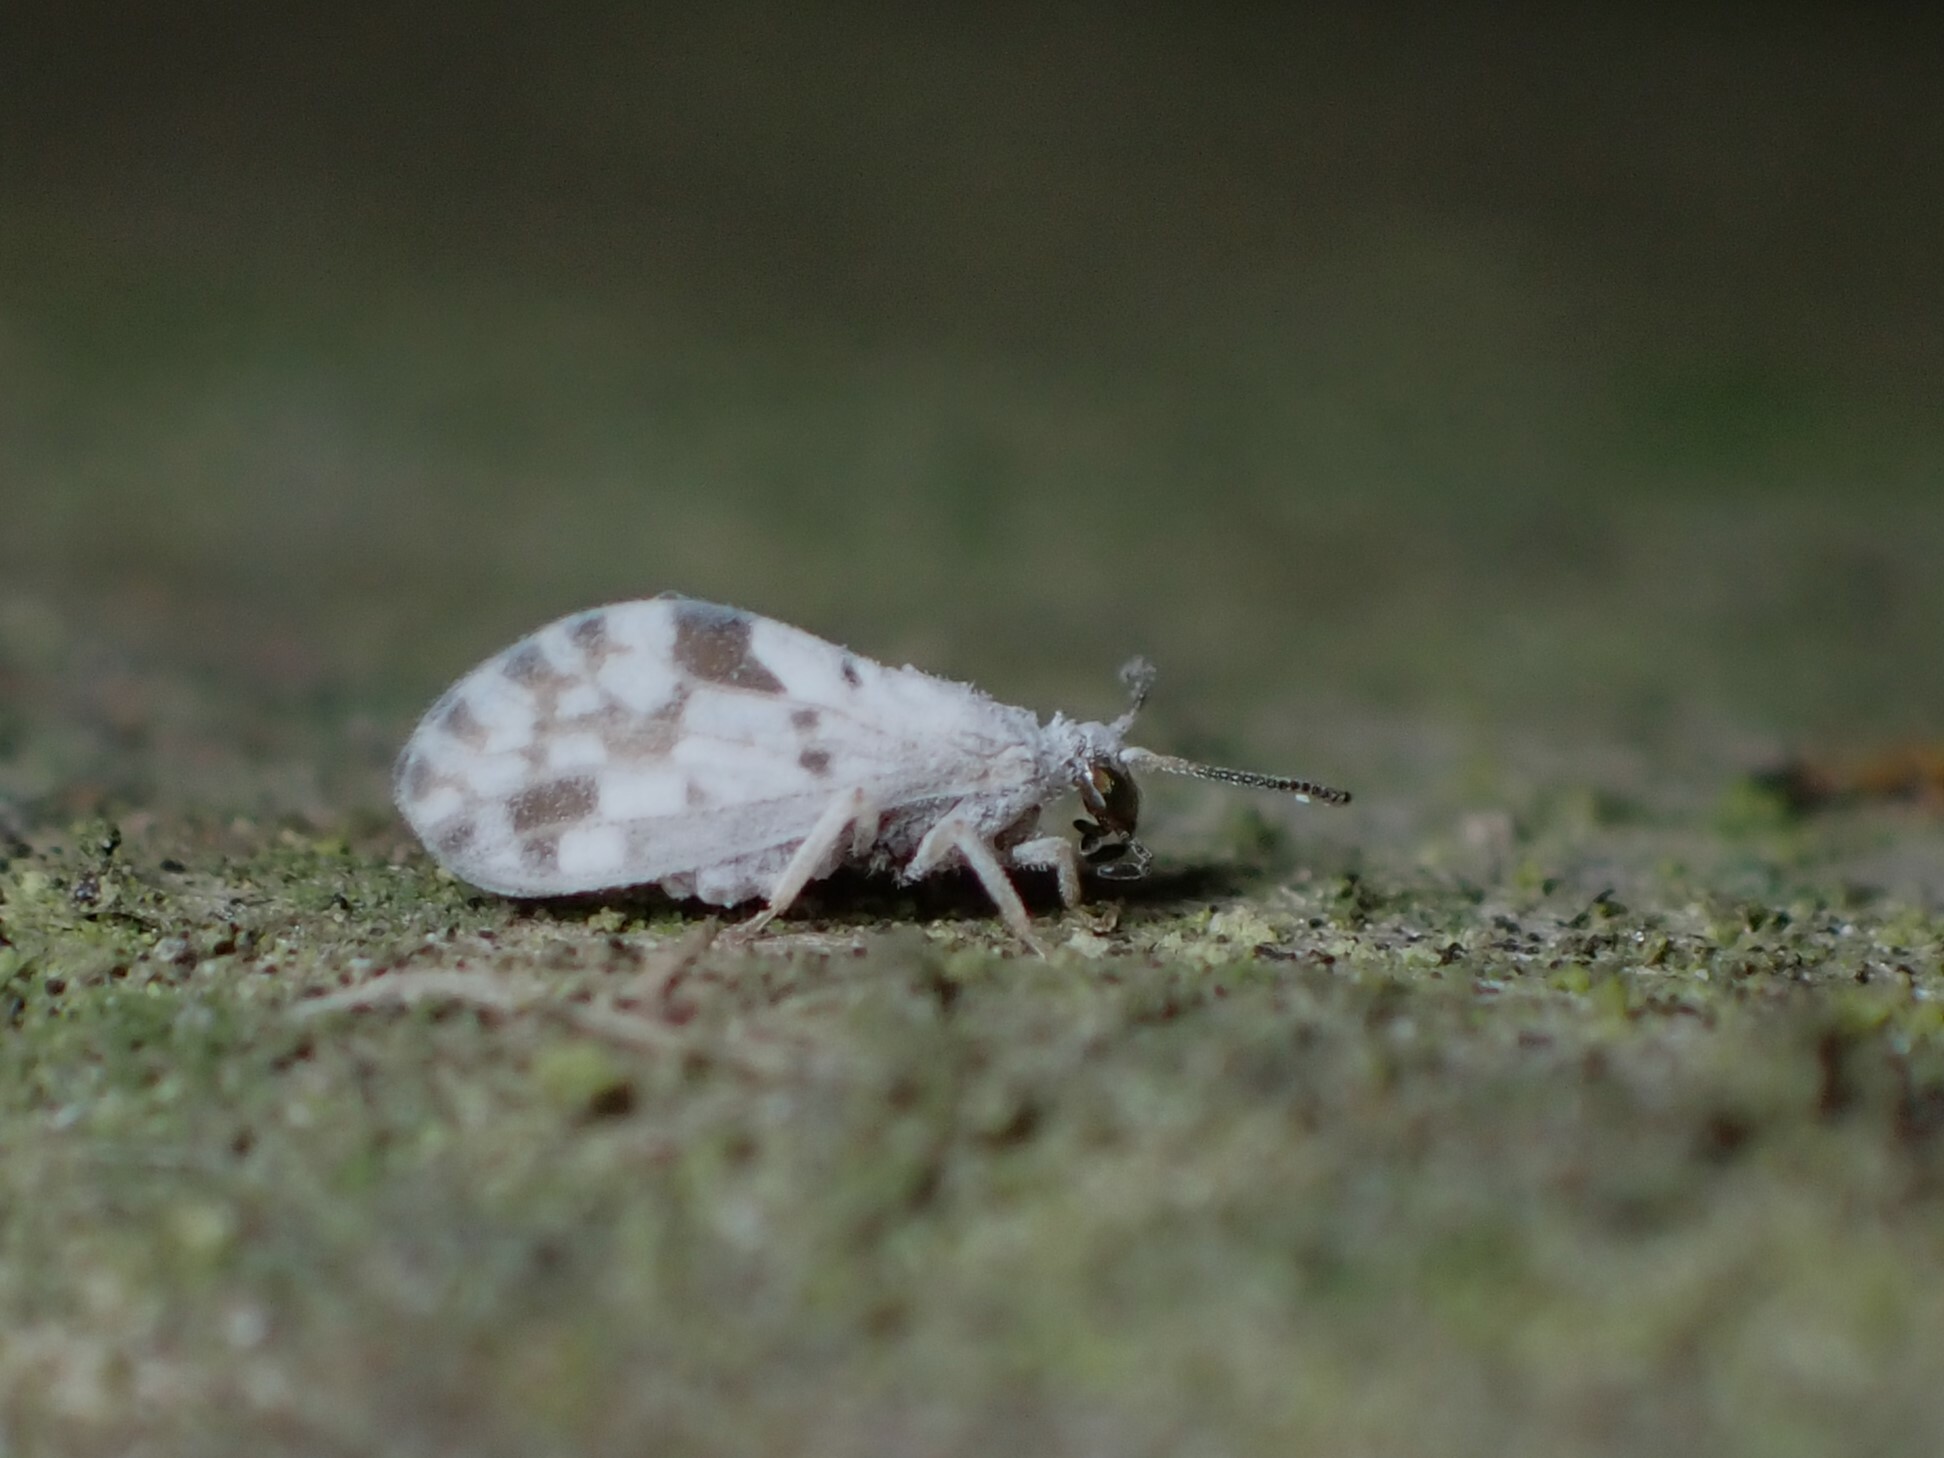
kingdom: Animalia
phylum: Arthropoda
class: Insecta
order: Neuroptera
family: Coniopterygidae
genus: Heteroconis
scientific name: Heteroconis ornata
